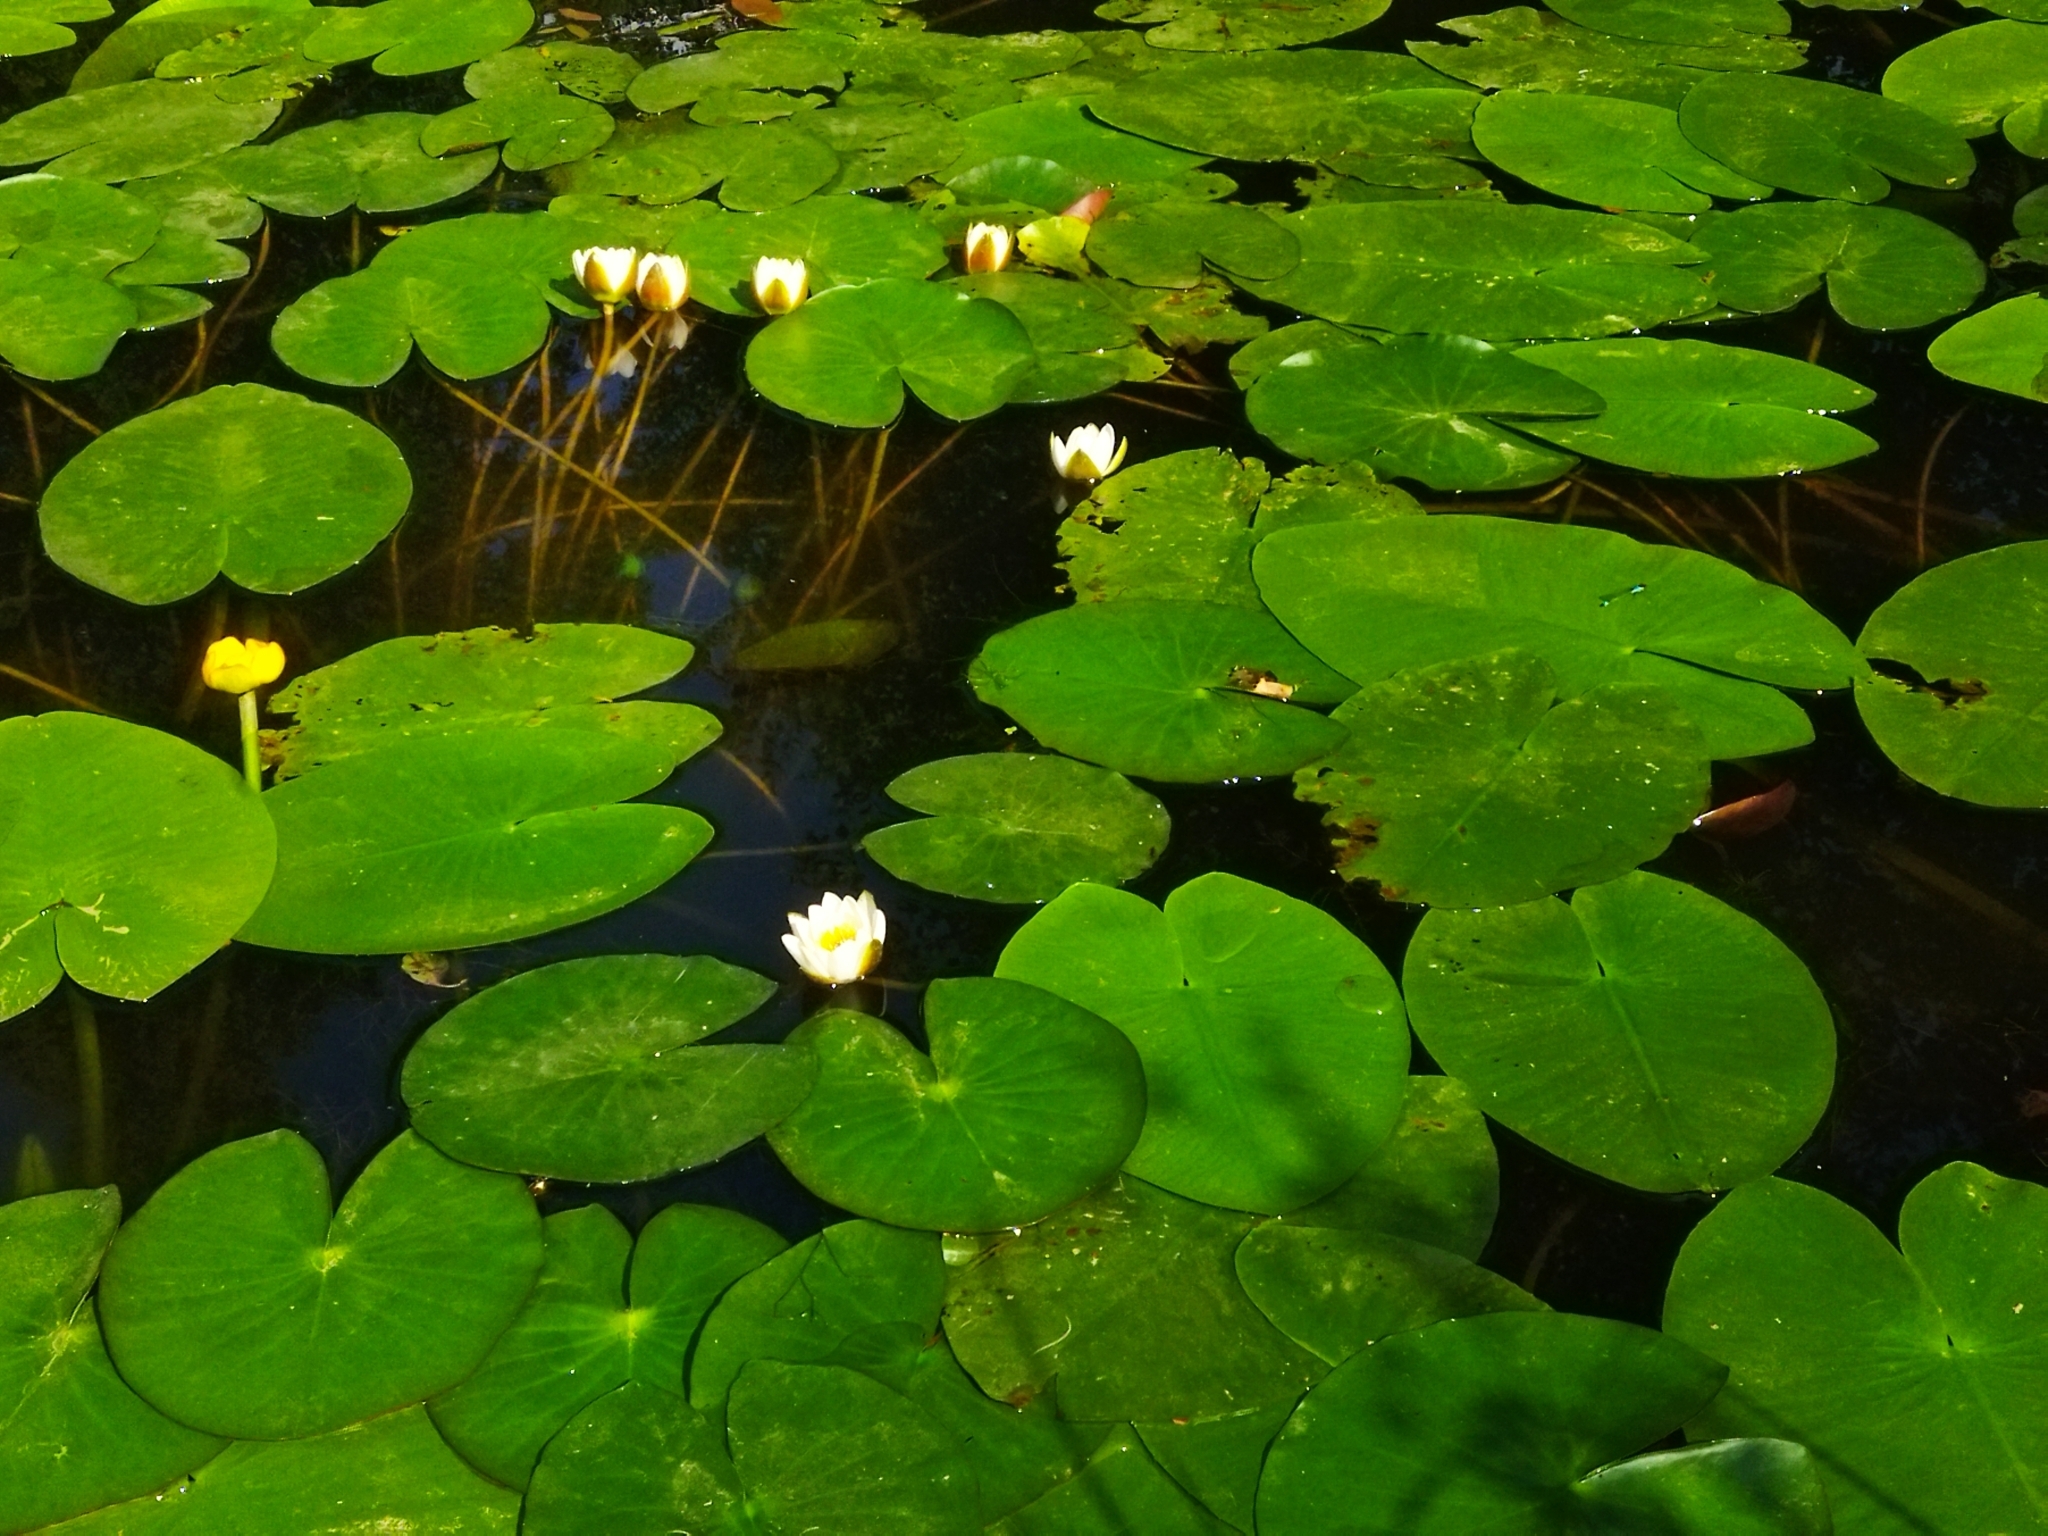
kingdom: Plantae
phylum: Tracheophyta
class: Magnoliopsida
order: Nymphaeales
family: Nymphaeaceae
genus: Nuphar
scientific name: Nuphar lutea
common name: Yellow water-lily
